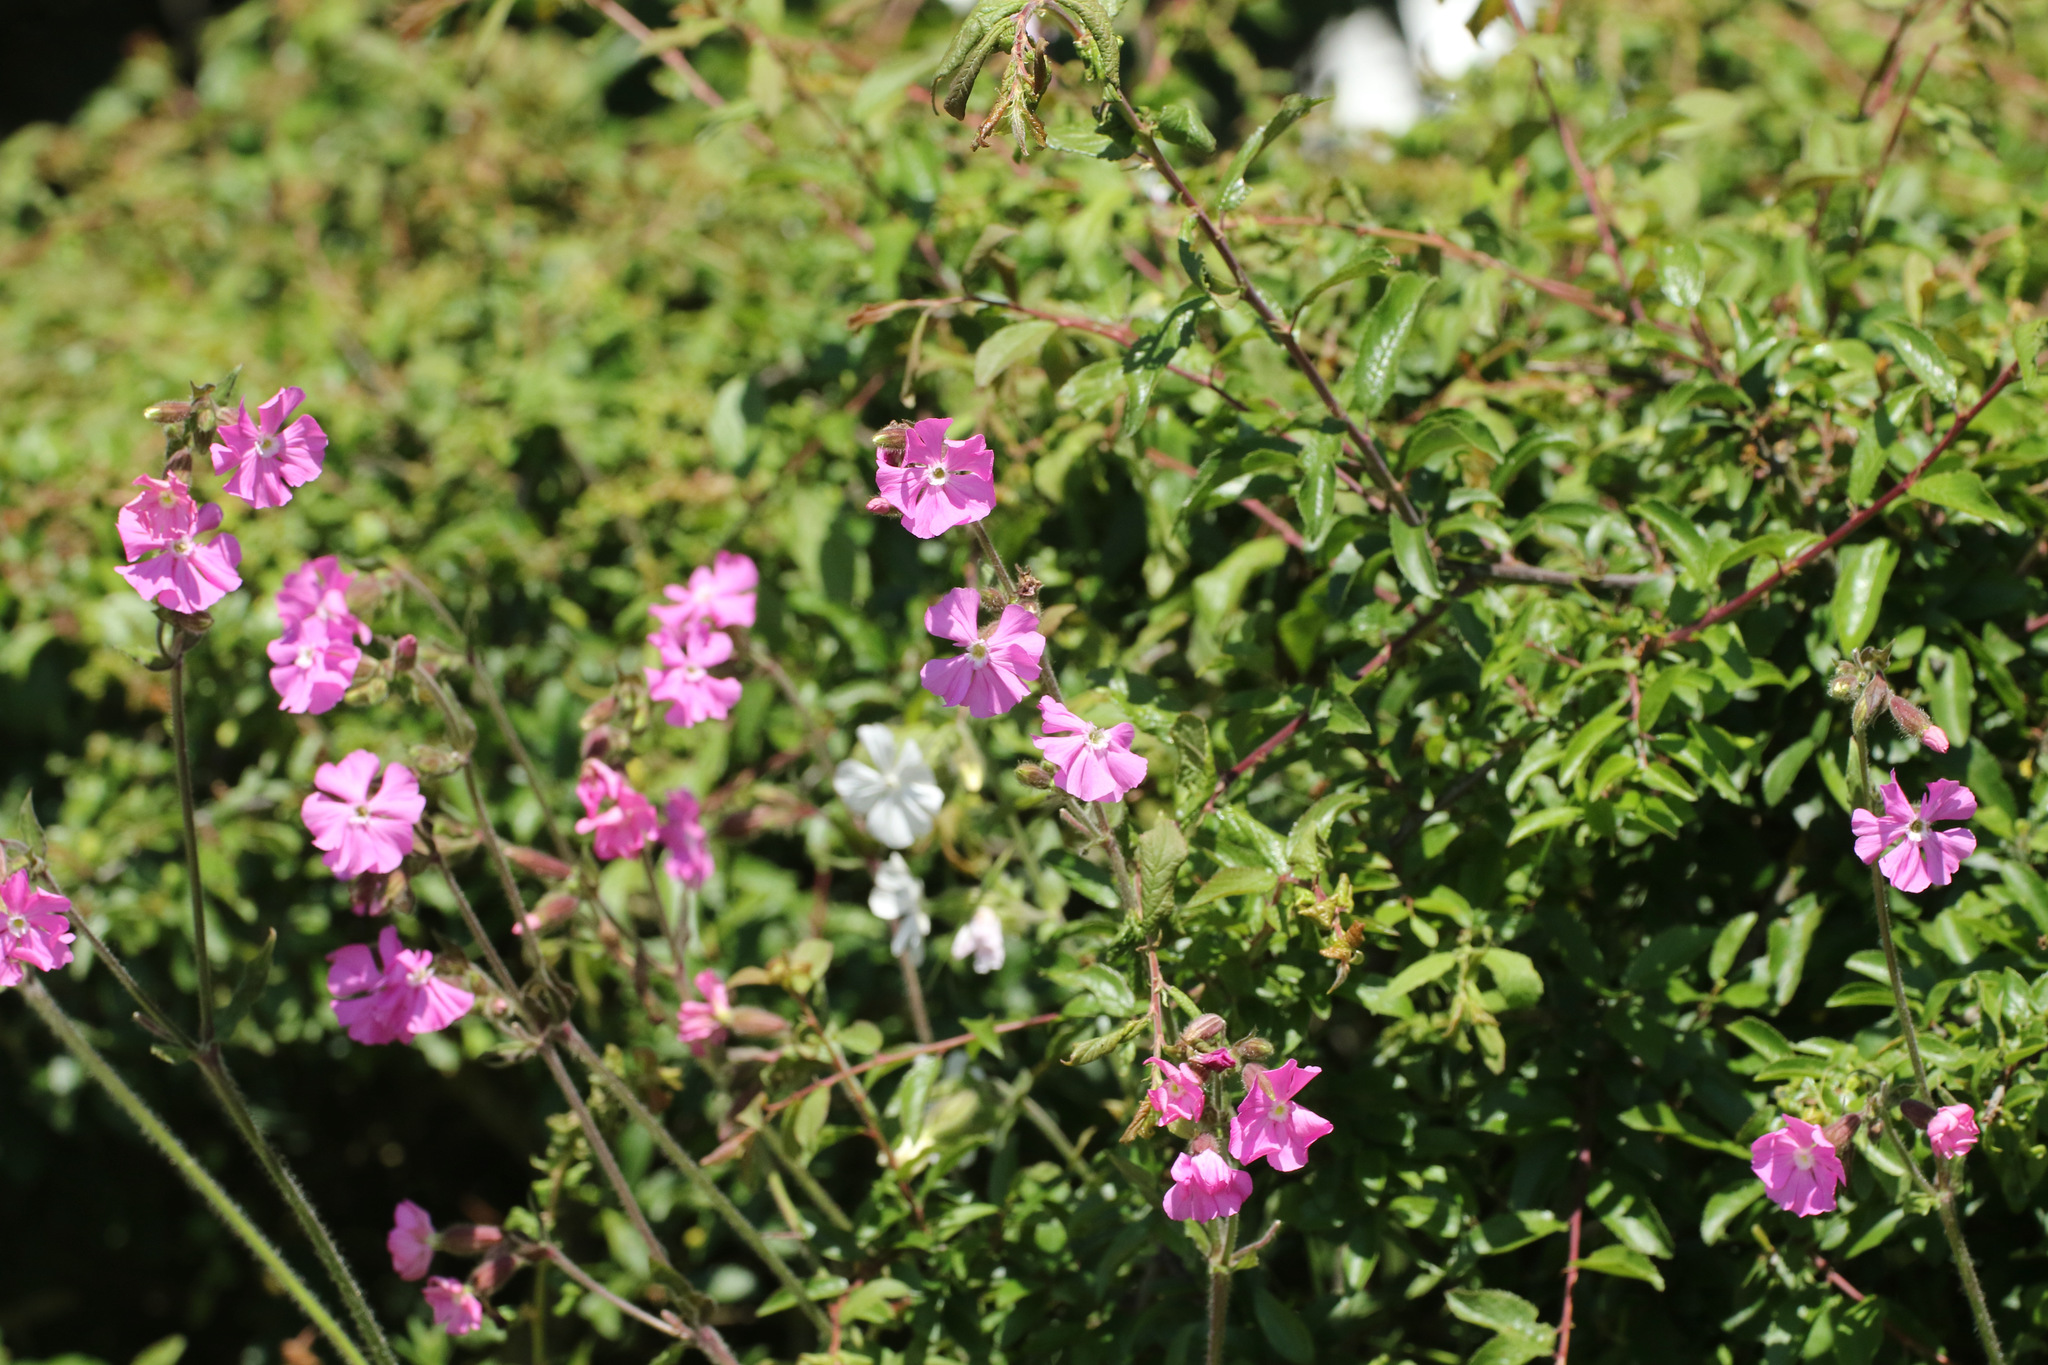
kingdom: Plantae
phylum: Tracheophyta
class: Magnoliopsida
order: Caryophyllales
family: Caryophyllaceae
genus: Silene
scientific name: Silene dioica
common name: Red campion
